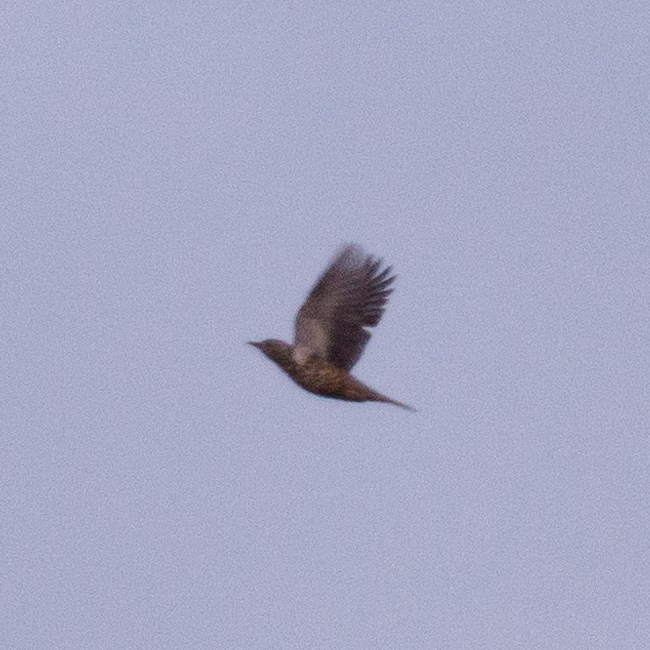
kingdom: Animalia
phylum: Chordata
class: Aves
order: Passeriformes
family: Turdidae
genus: Turdus
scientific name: Turdus viscivorus
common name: Mistle thrush
